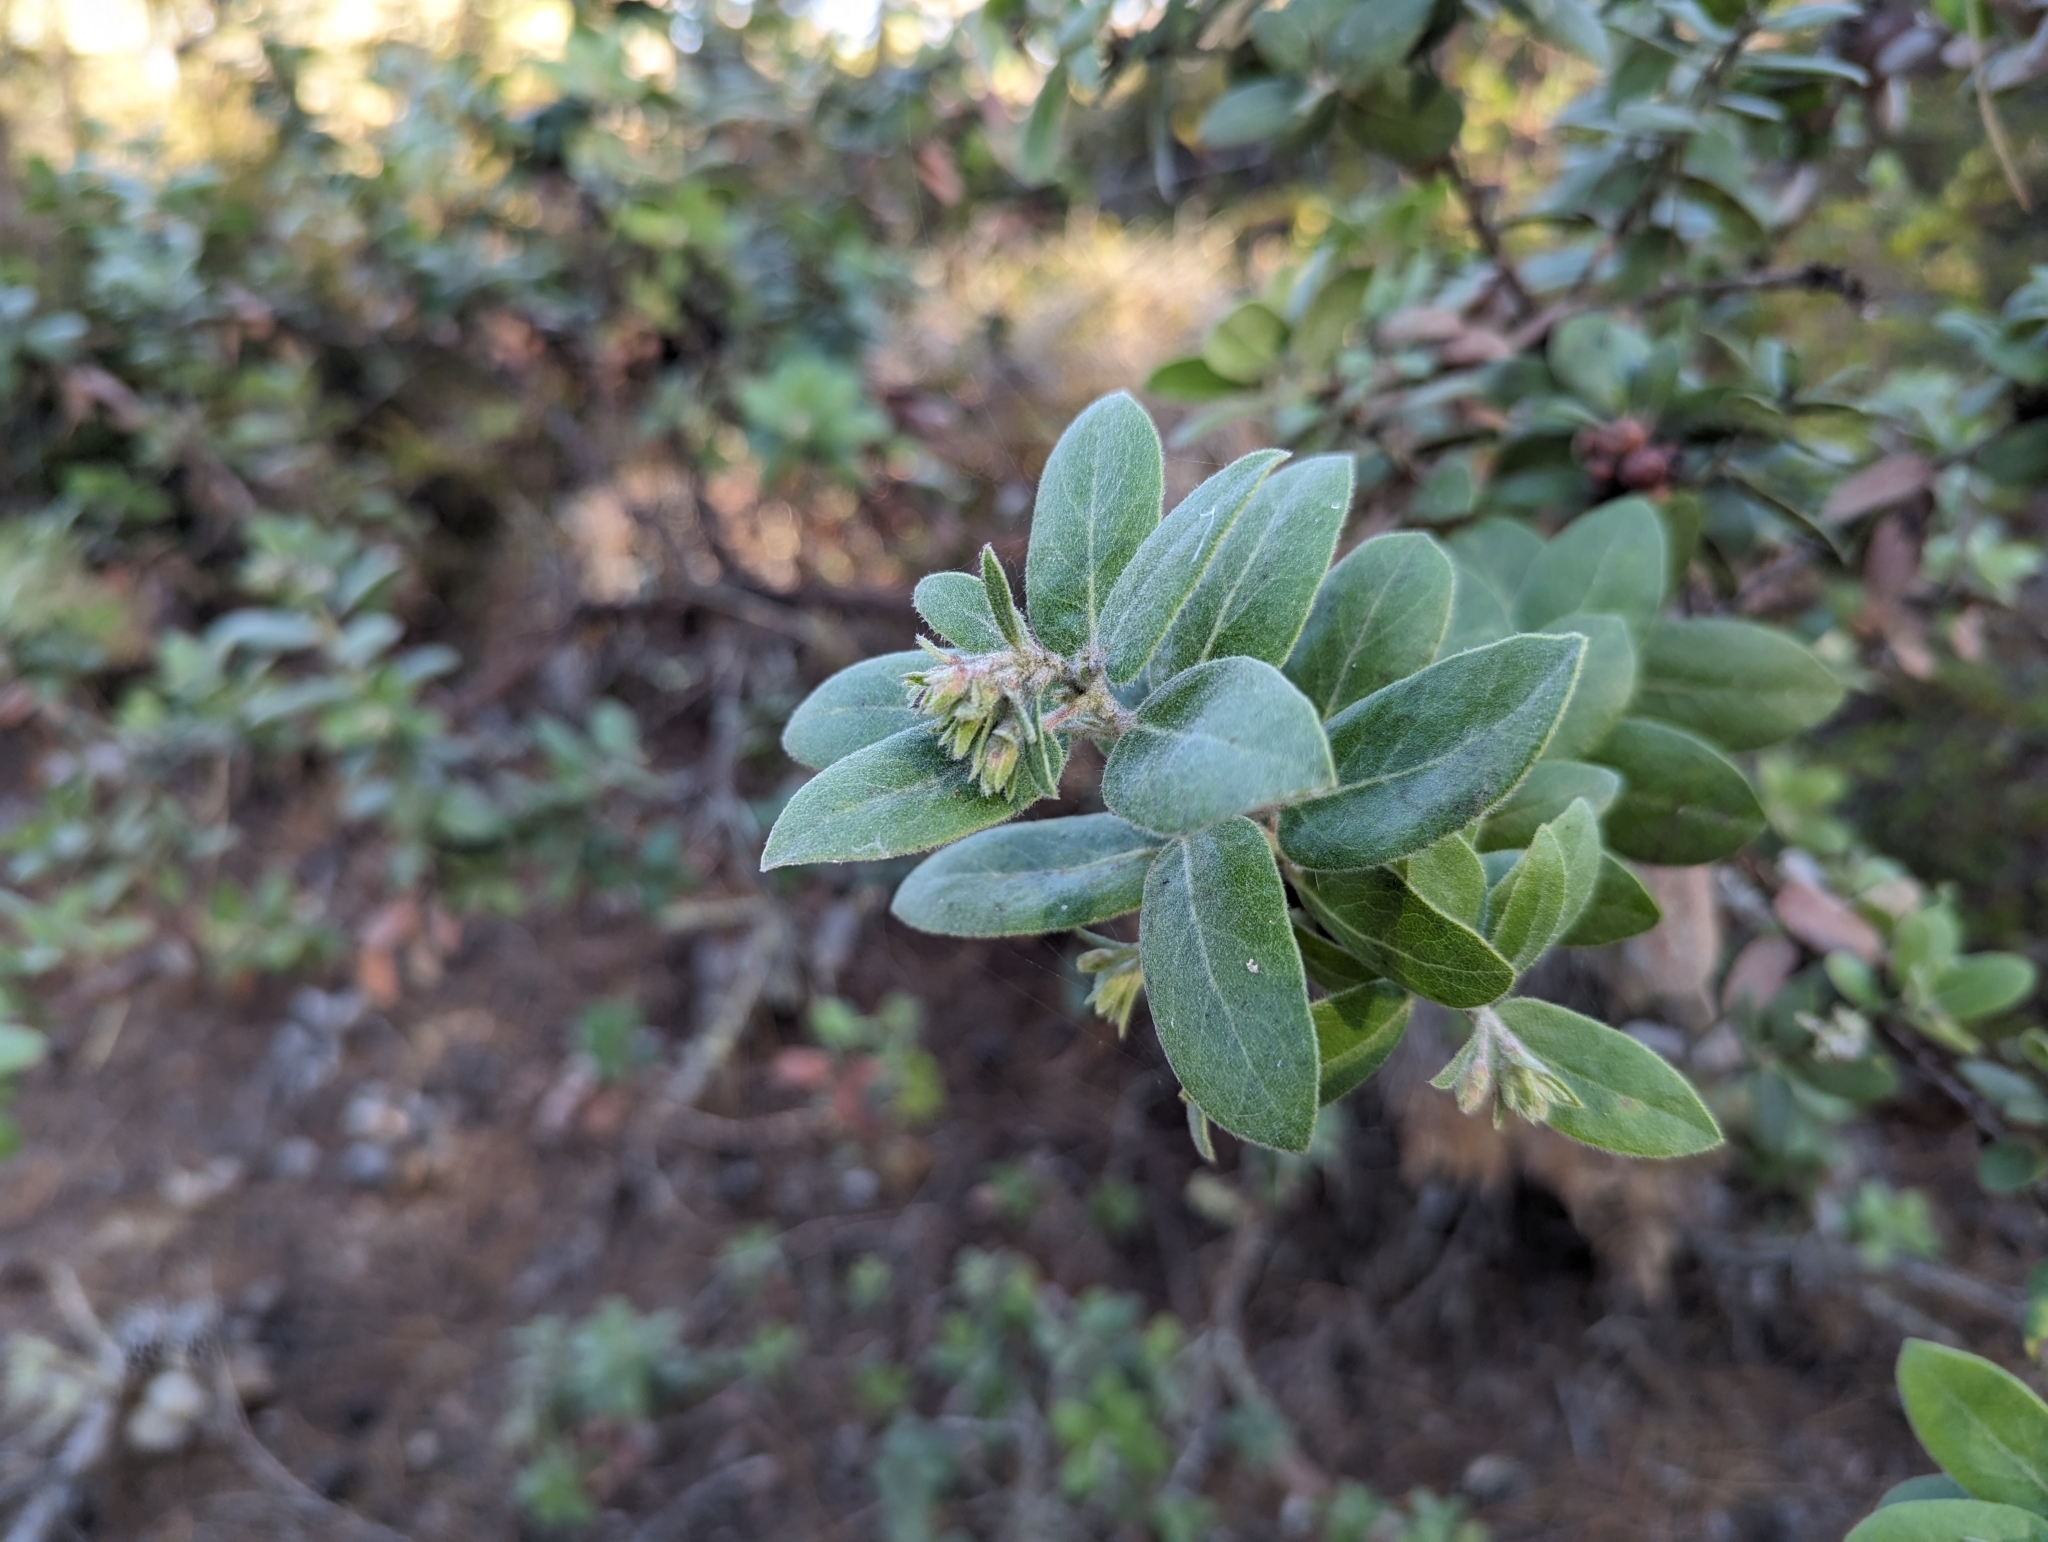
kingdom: Plantae
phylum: Tracheophyta
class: Magnoliopsida
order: Ericales
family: Ericaceae
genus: Arctostaphylos
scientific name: Arctostaphylos tomentosa
